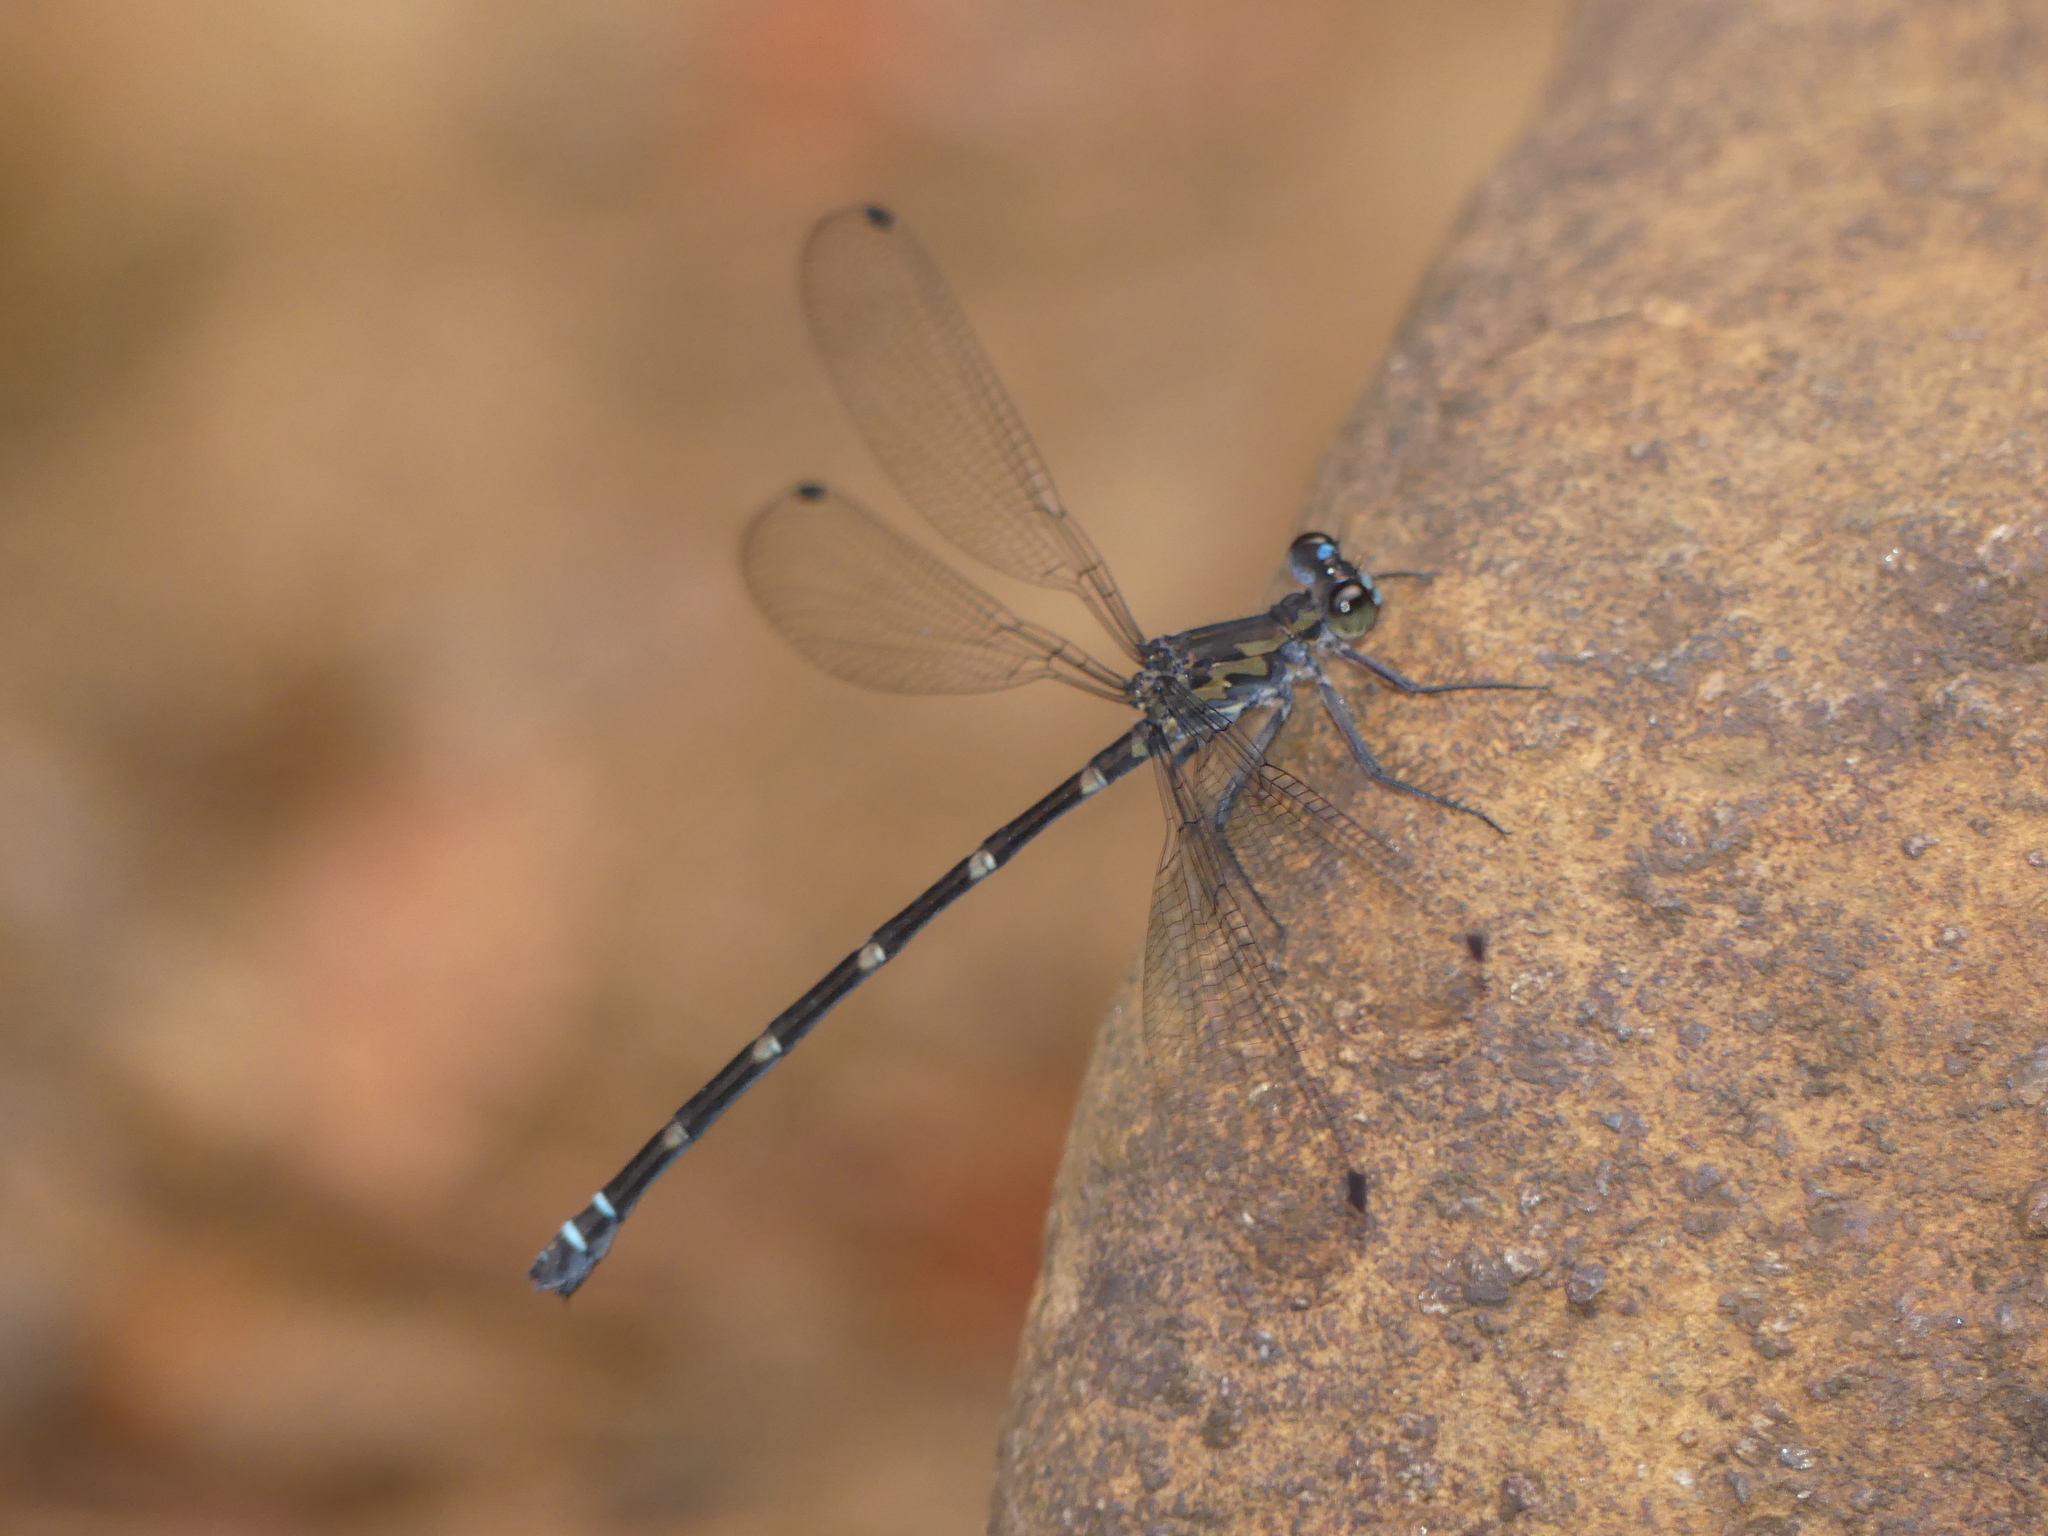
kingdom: Animalia
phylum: Arthropoda
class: Insecta
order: Odonata
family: Argiolestidae
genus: Caledopteryx
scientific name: Caledopteryx maculata
